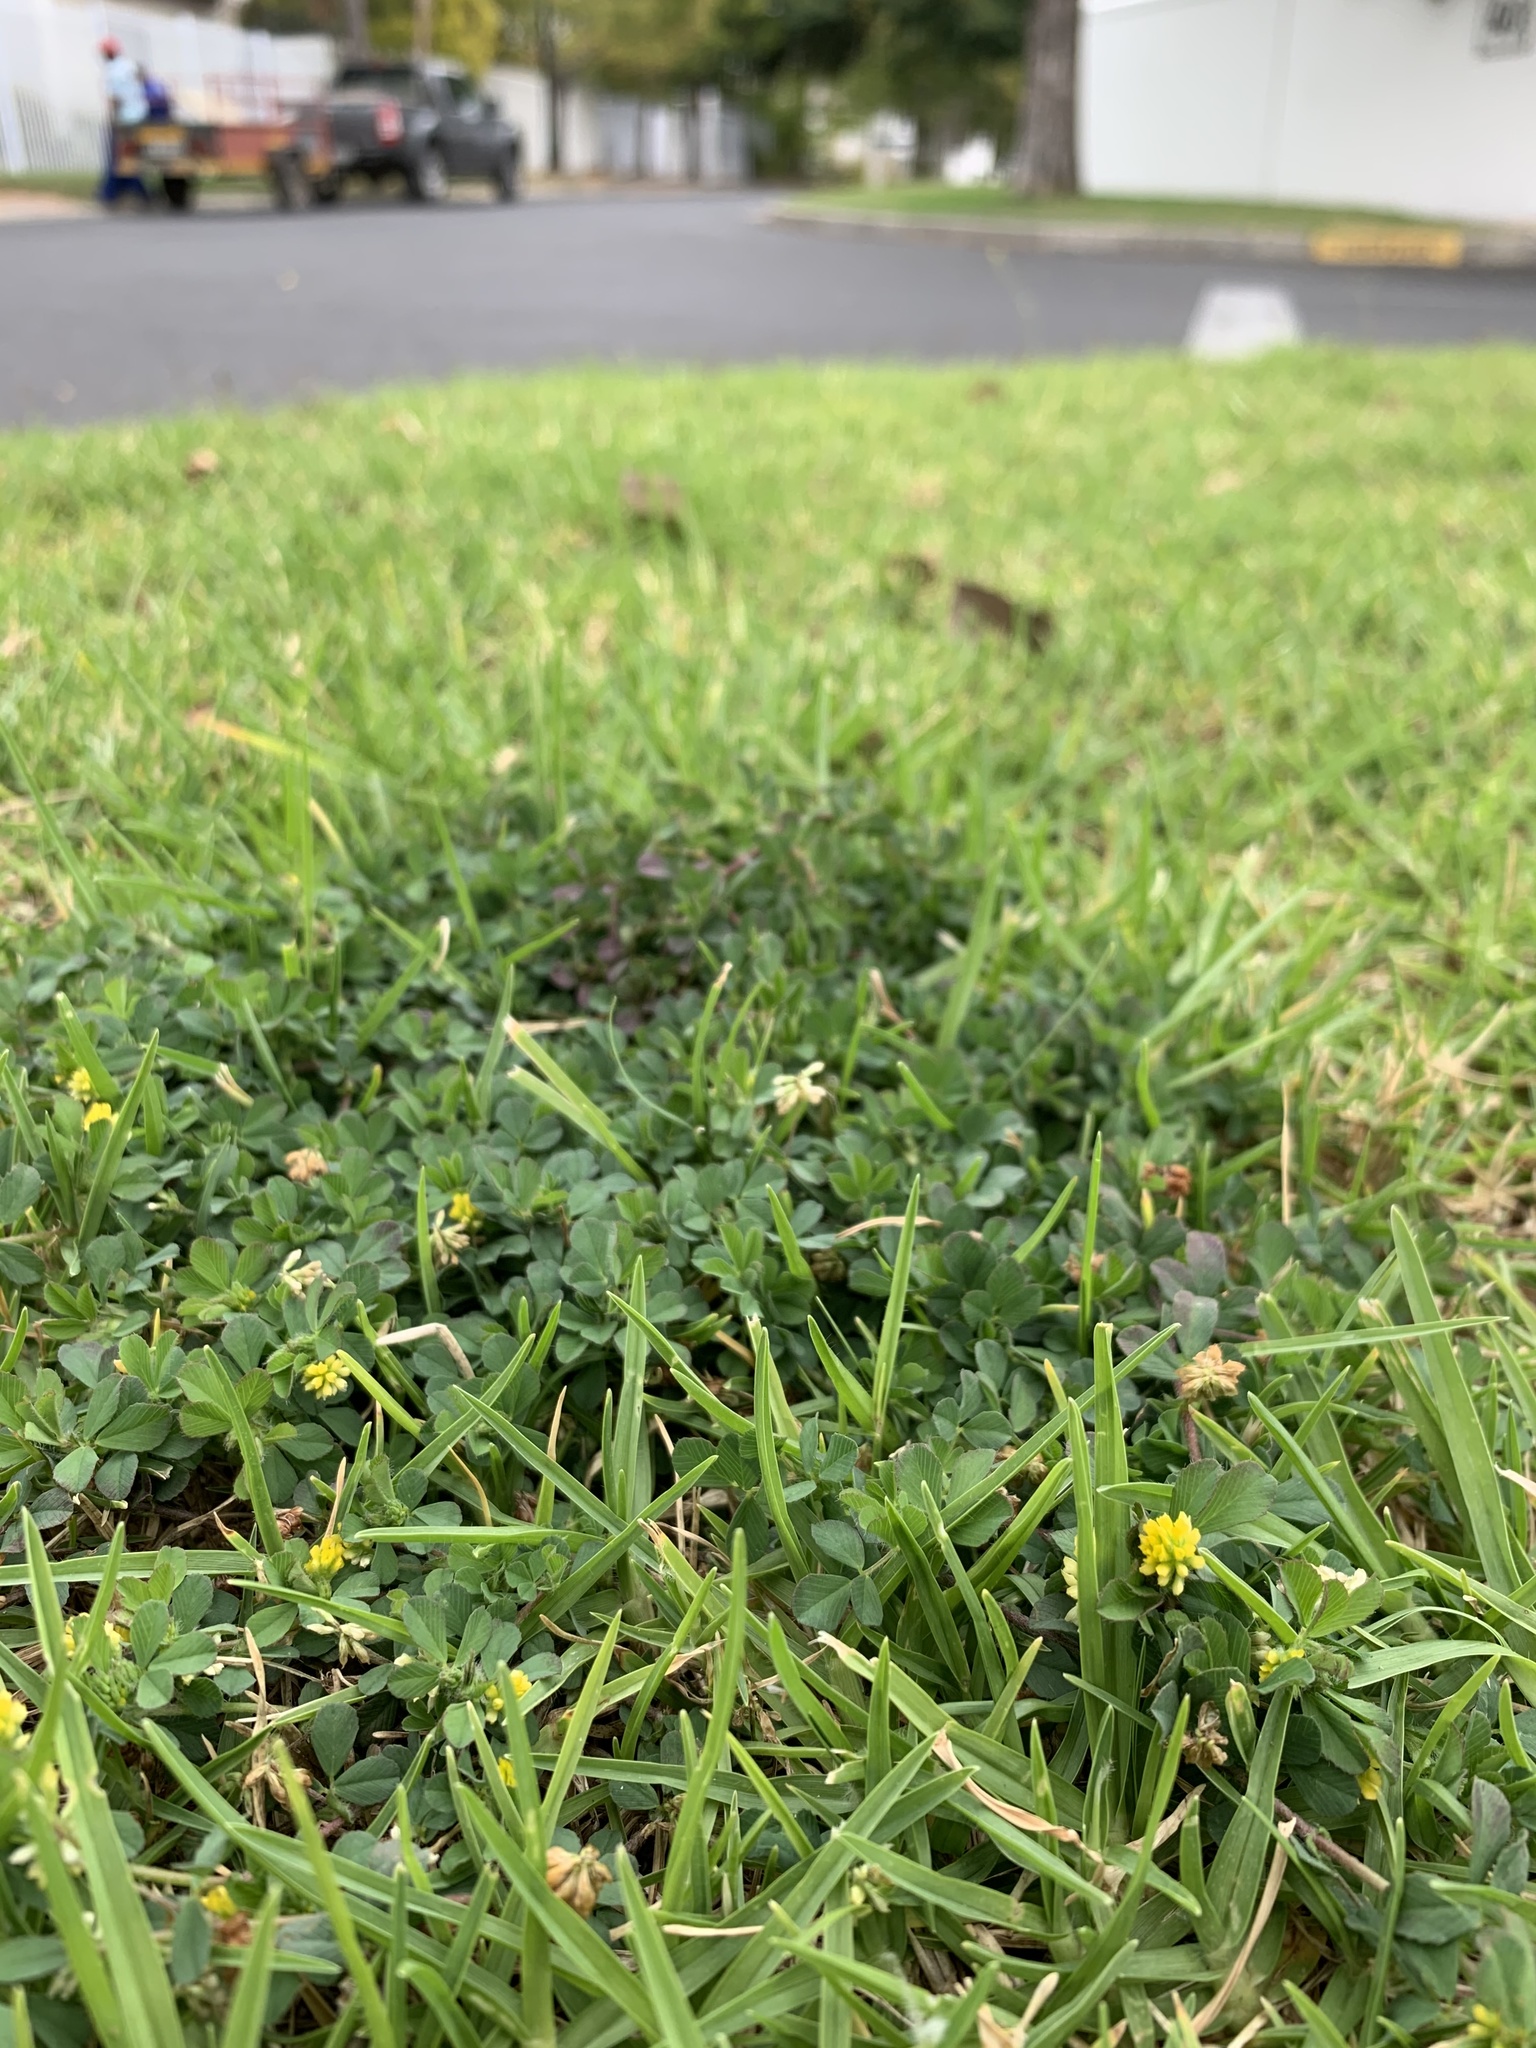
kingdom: Plantae
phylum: Tracheophyta
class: Magnoliopsida
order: Fabales
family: Fabaceae
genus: Trifolium
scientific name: Trifolium dubium
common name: Suckling clover
